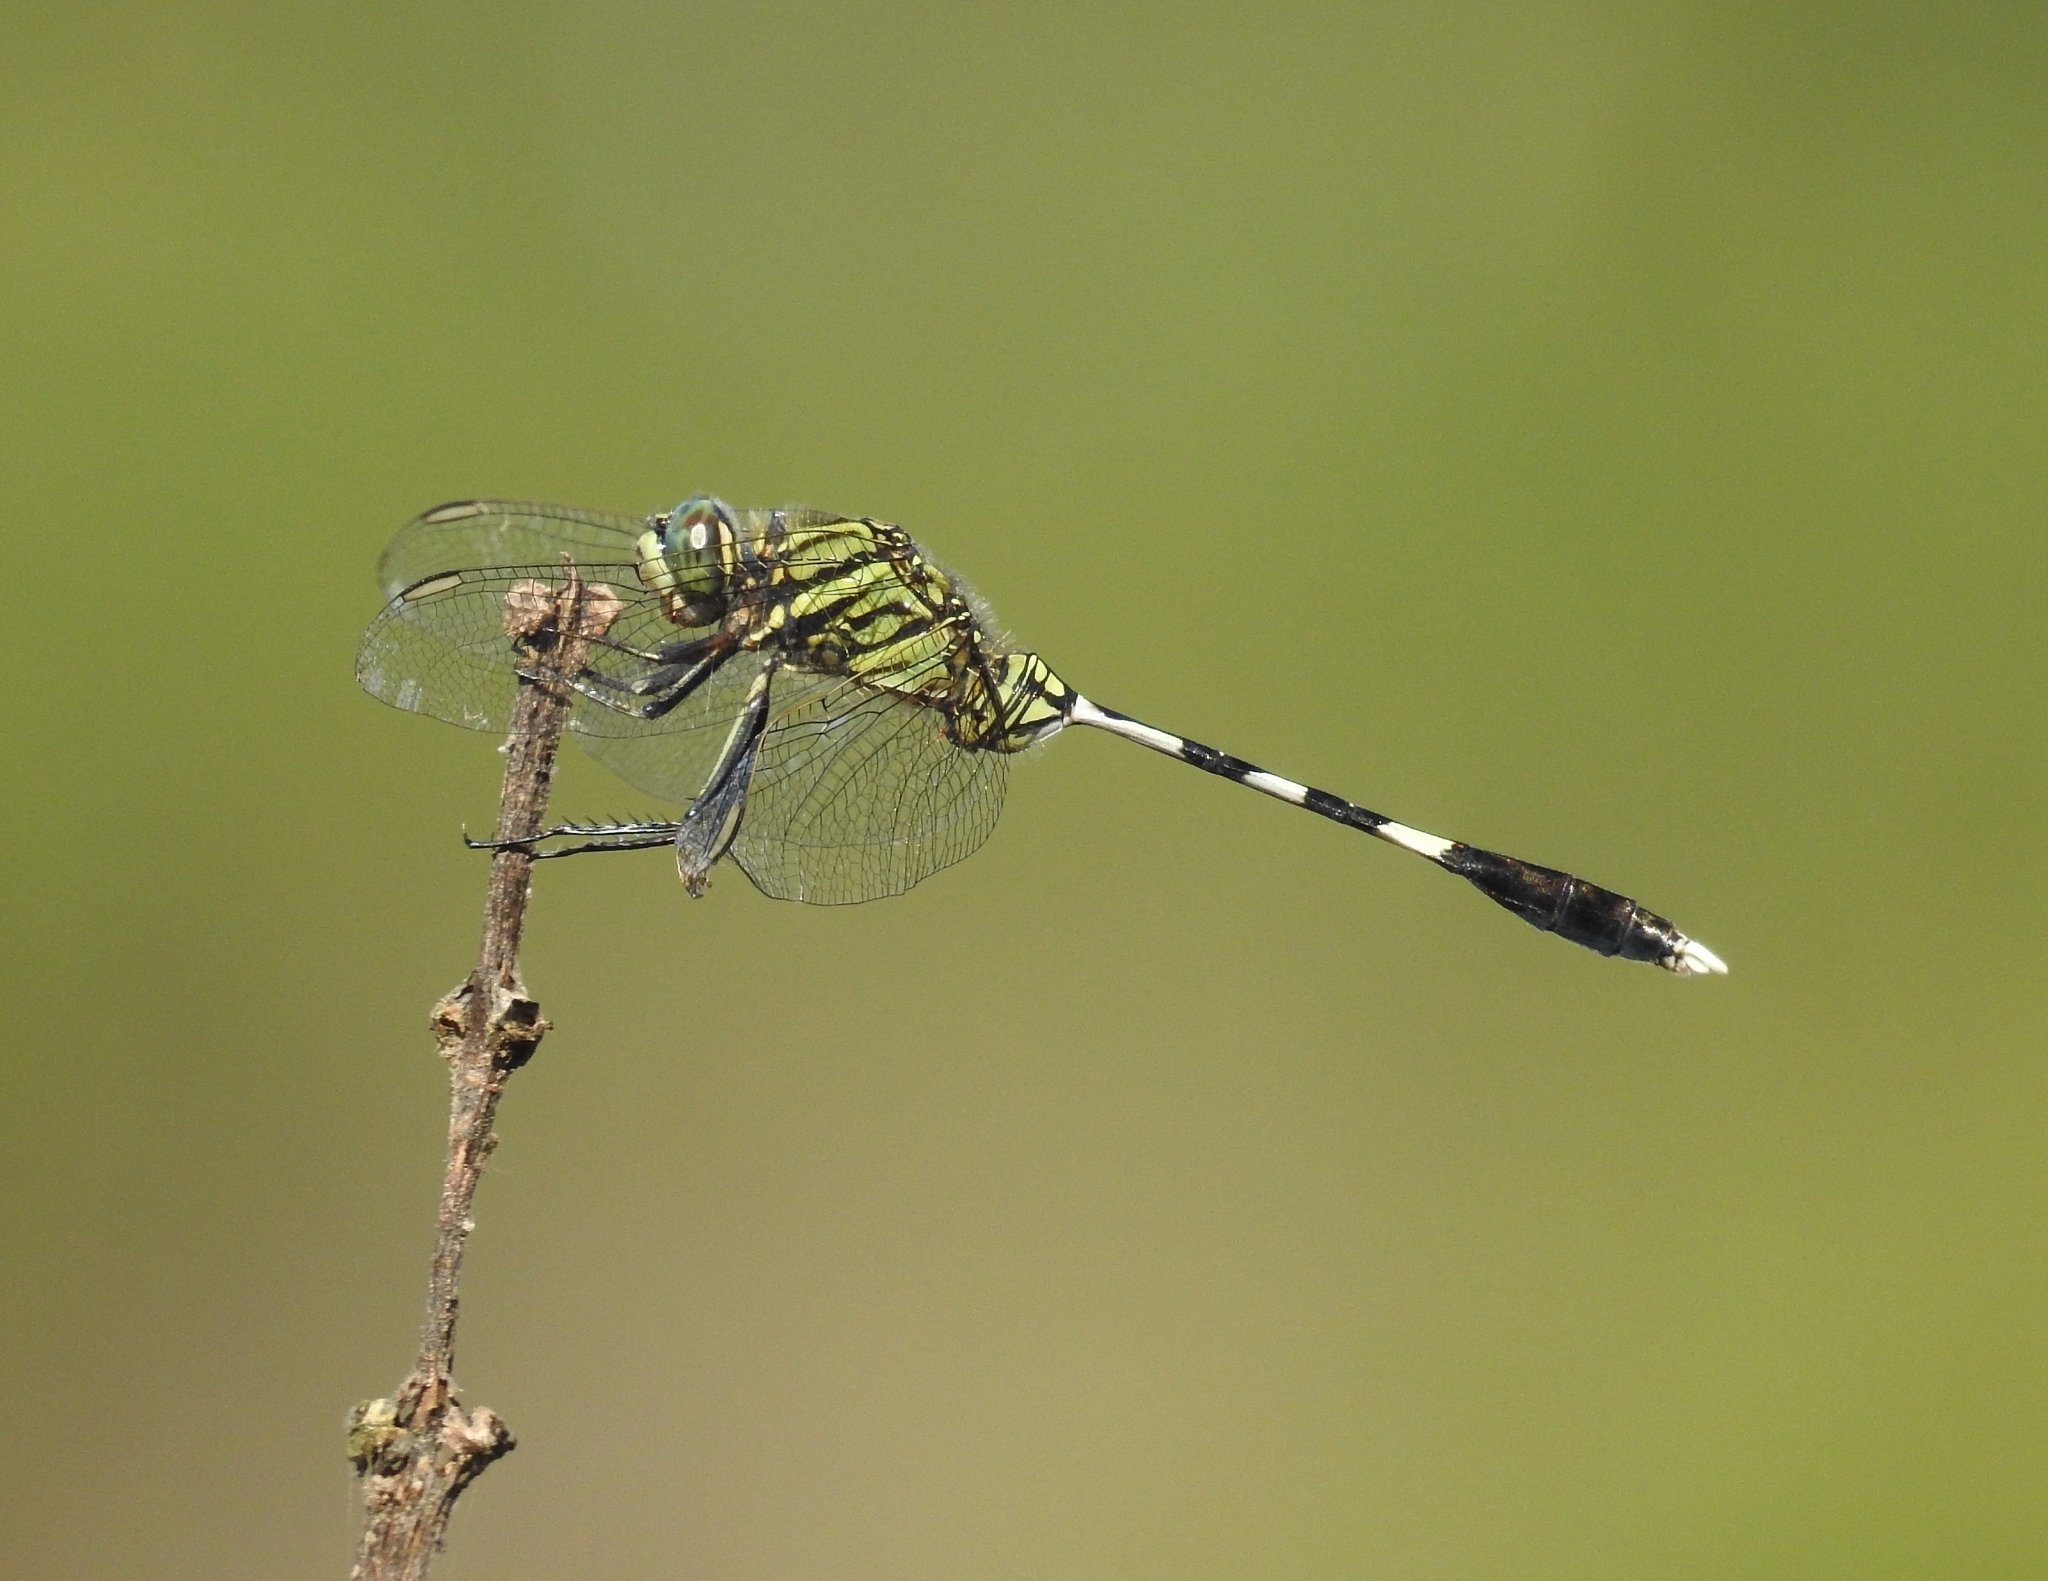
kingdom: Animalia
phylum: Arthropoda
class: Insecta
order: Odonata
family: Libellulidae
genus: Orthetrum
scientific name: Orthetrum sabina
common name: Slender skimmer
